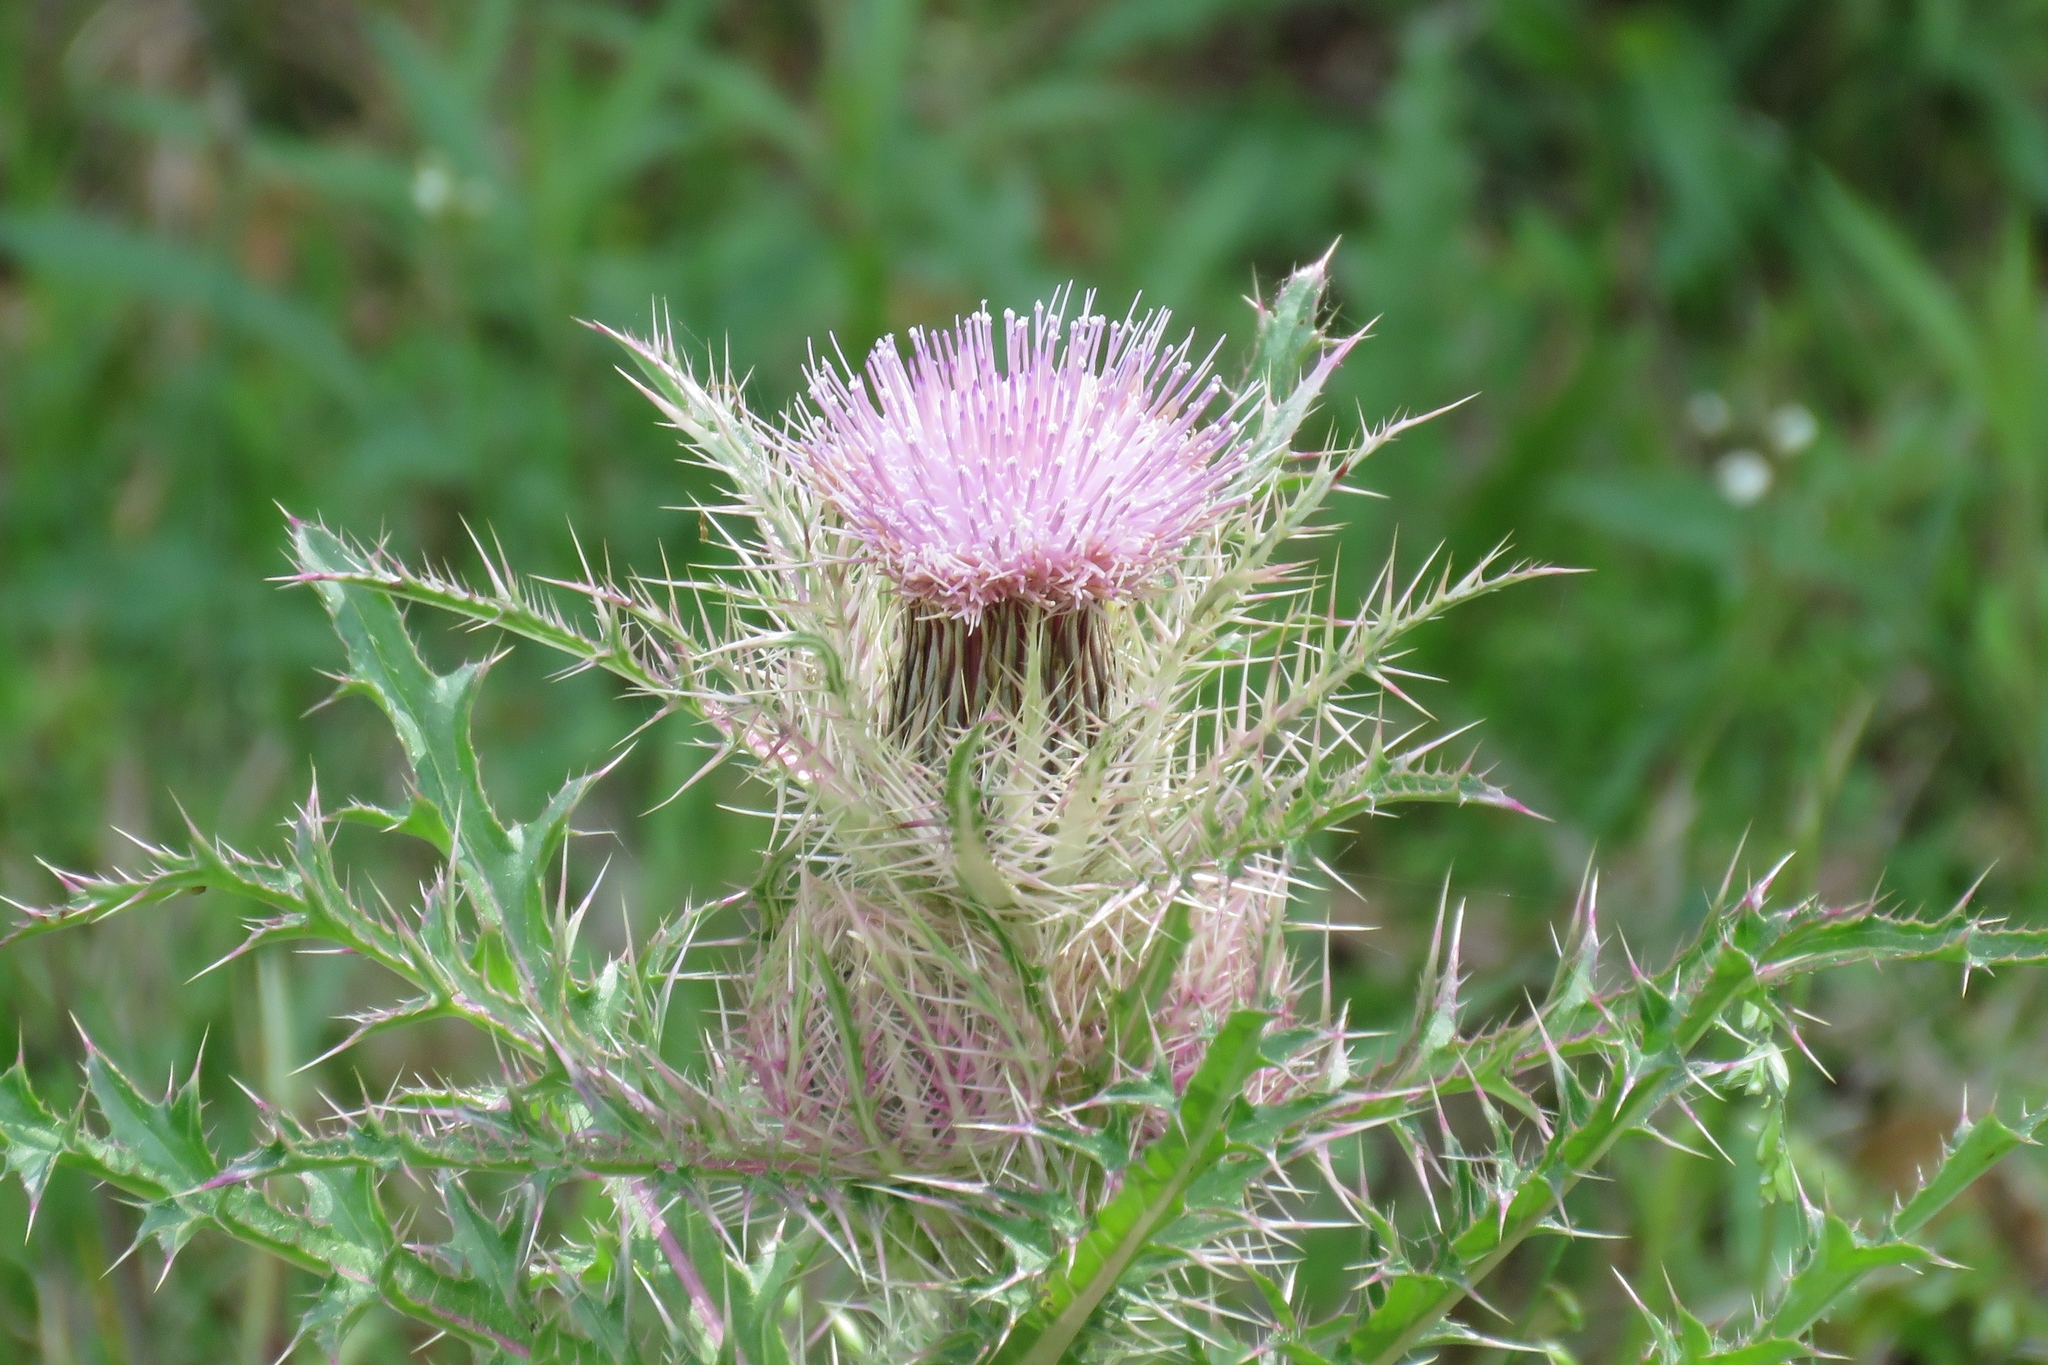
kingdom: Plantae
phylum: Tracheophyta
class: Magnoliopsida
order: Asterales
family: Asteraceae
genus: Cirsium
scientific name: Cirsium horridulum
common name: Bristly thistle
